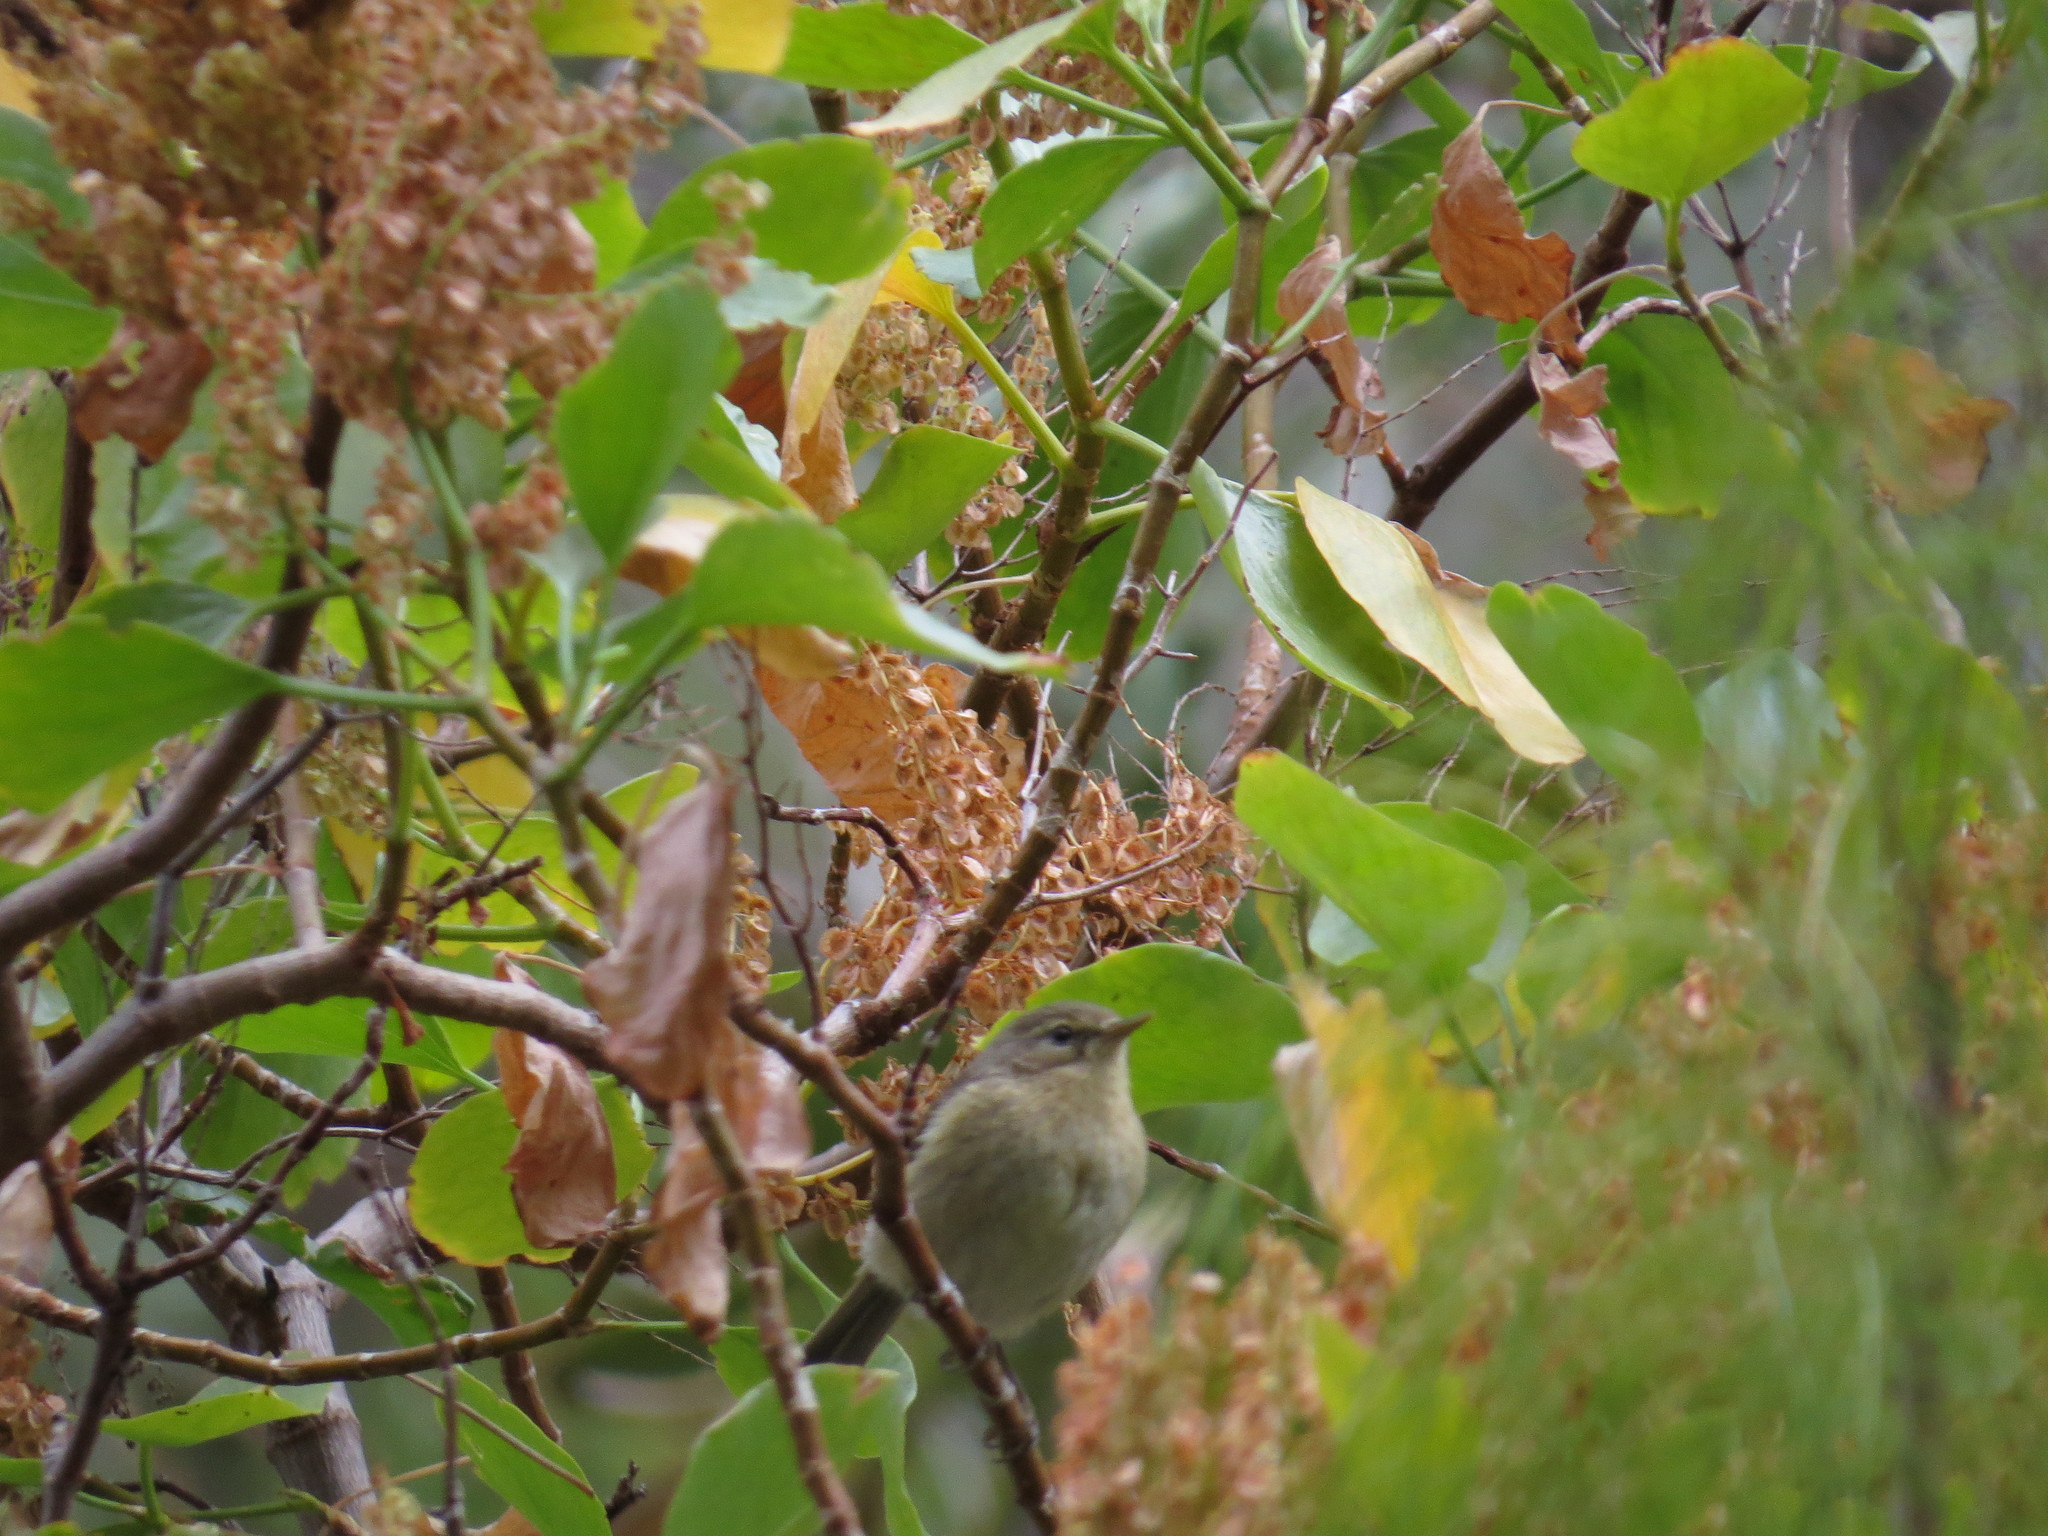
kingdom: Animalia
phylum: Chordata
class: Aves
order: Passeriformes
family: Phylloscopidae
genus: Phylloscopus
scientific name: Phylloscopus canariensis
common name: Canary islands chiffchaff
